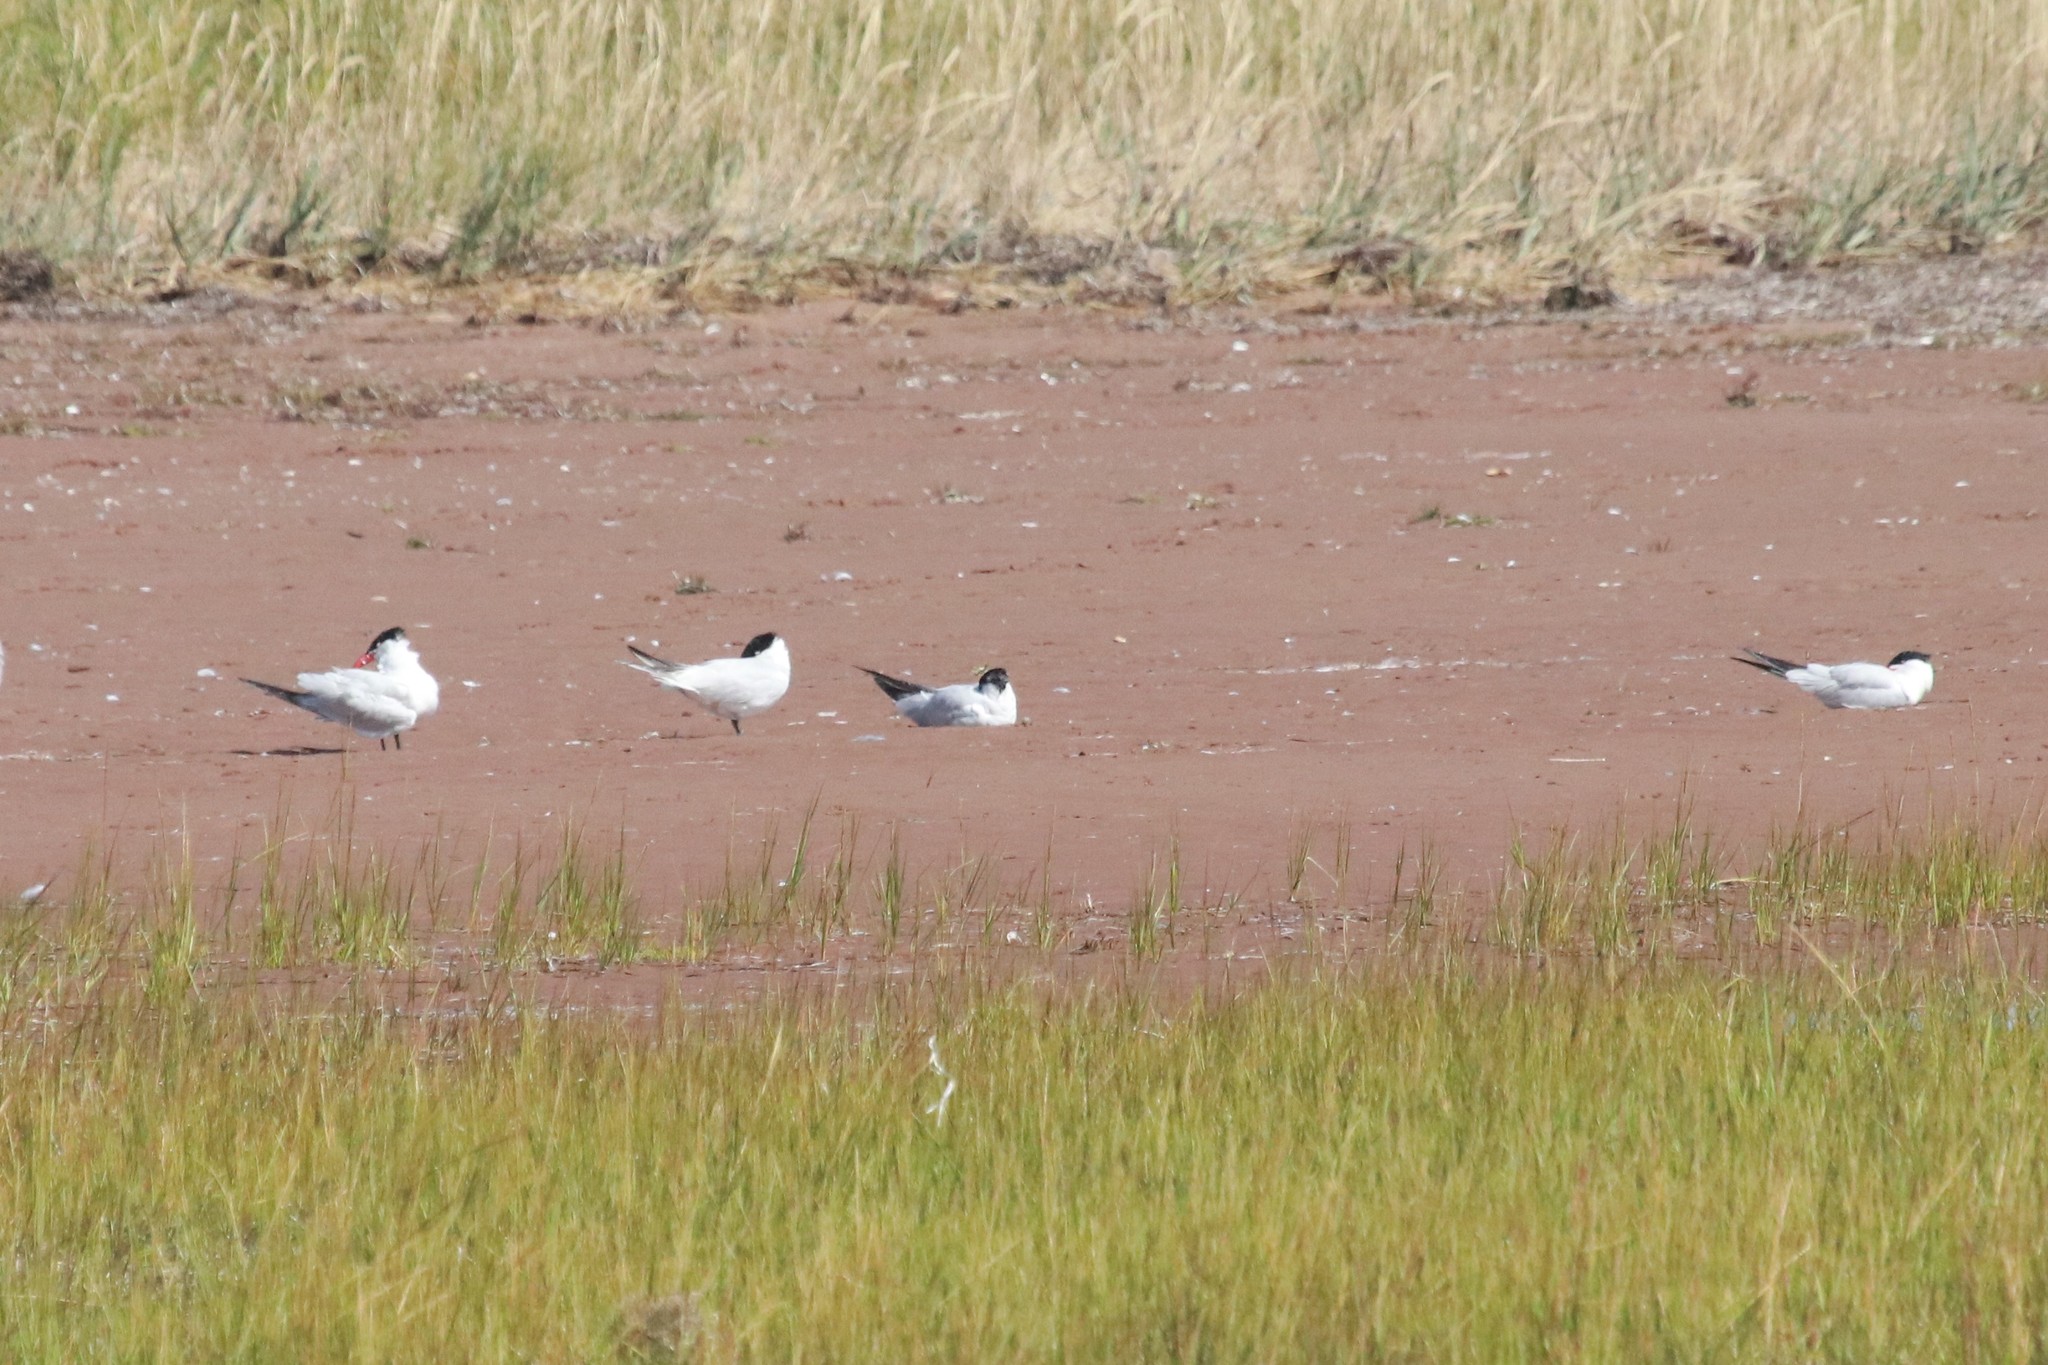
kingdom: Animalia
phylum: Chordata
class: Aves
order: Charadriiformes
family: Laridae
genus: Hydroprogne
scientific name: Hydroprogne caspia
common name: Caspian tern
